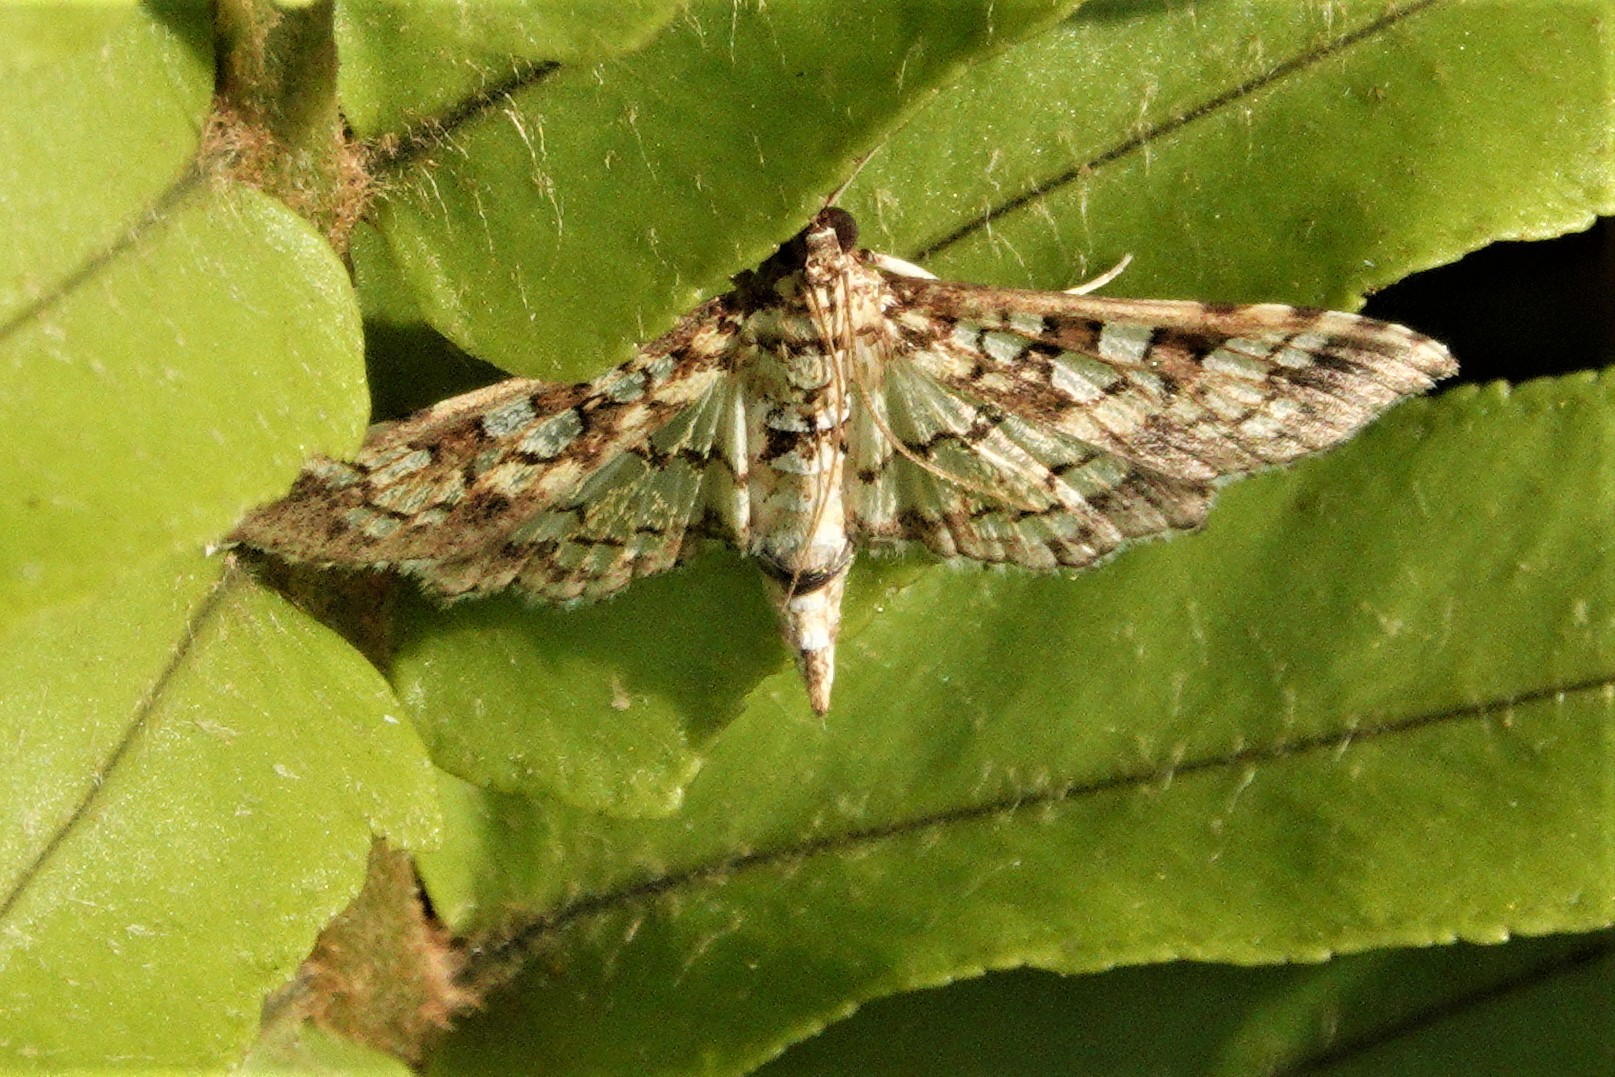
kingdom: Animalia
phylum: Arthropoda
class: Insecta
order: Lepidoptera
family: Crambidae
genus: Samea
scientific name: Samea ecclesialis
